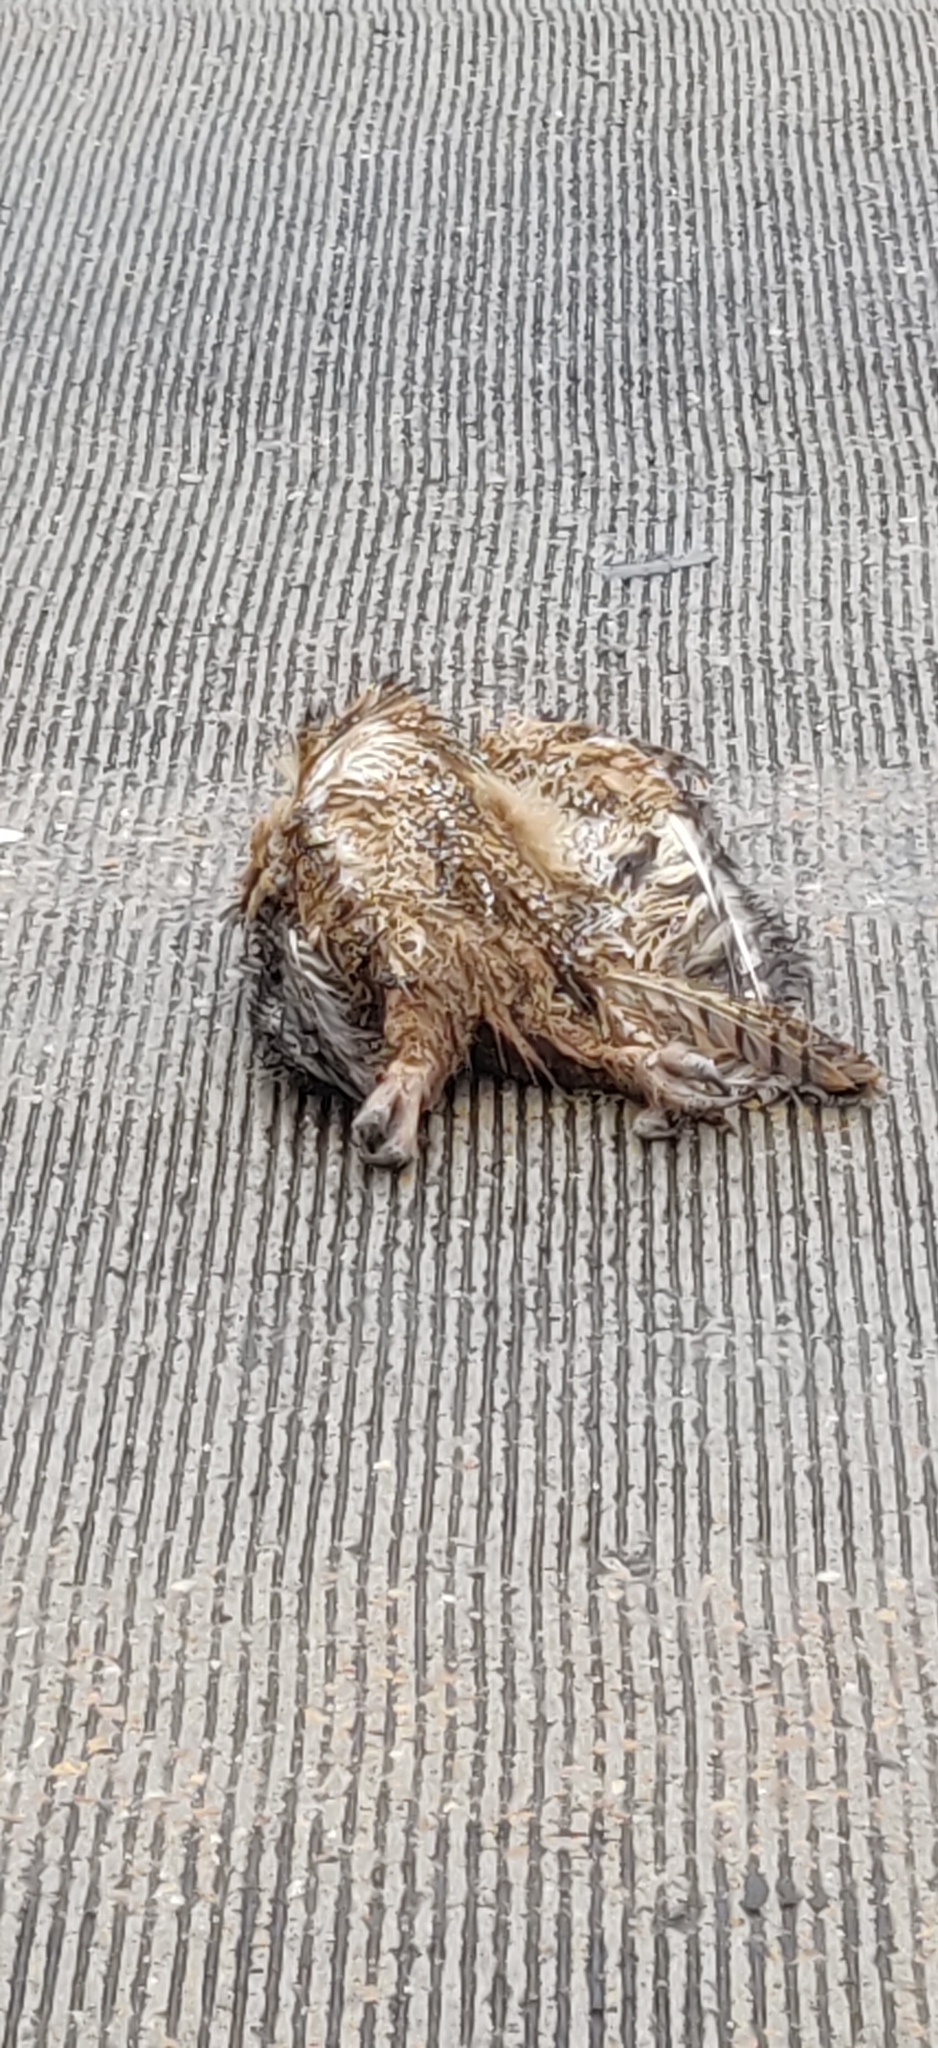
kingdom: Animalia
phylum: Chordata
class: Aves
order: Strigiformes
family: Strigidae
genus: Bubo
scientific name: Bubo virginianus
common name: Great horned owl
